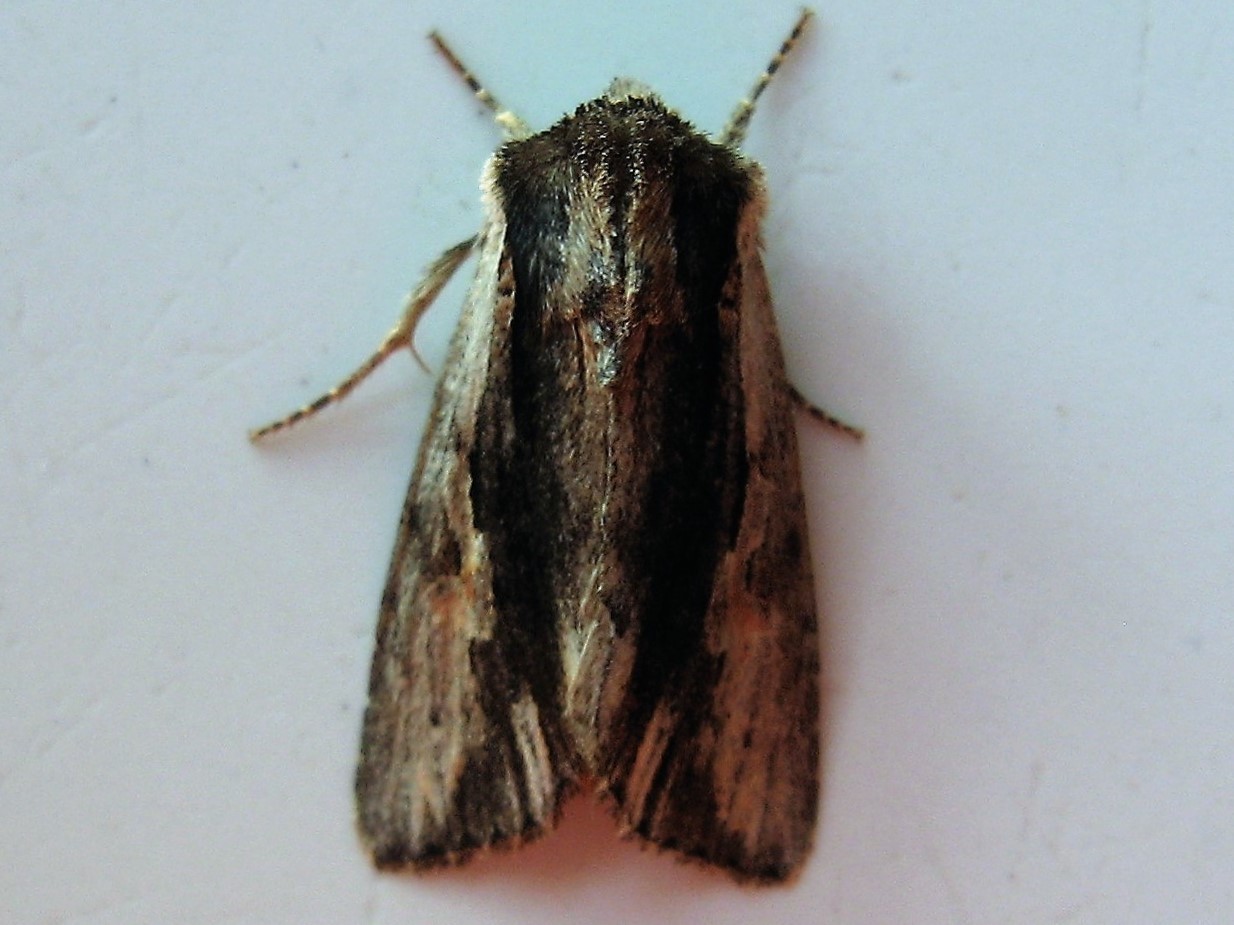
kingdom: Animalia
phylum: Arthropoda
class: Insecta
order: Lepidoptera
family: Noctuidae
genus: Achatia
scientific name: Achatia evicta
